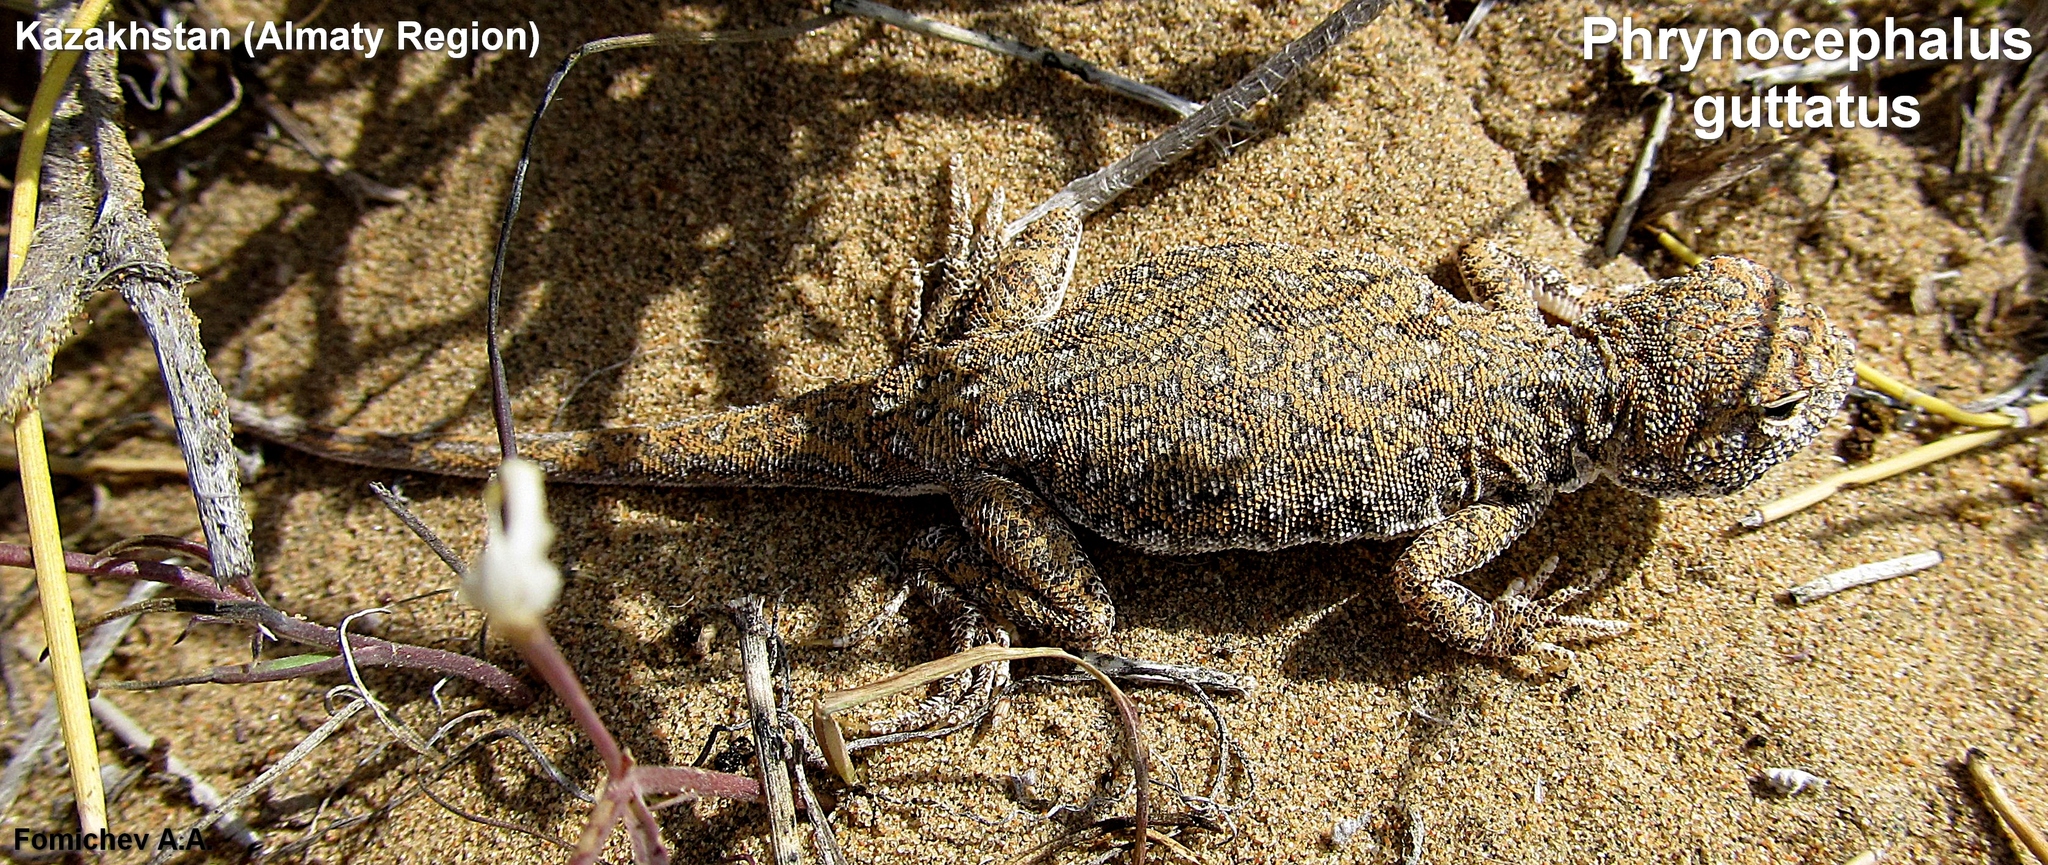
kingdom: Animalia
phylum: Chordata
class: Squamata
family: Agamidae
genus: Phrynocephalus
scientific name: Phrynocephalus guttatus
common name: Spotted toadhead agama
